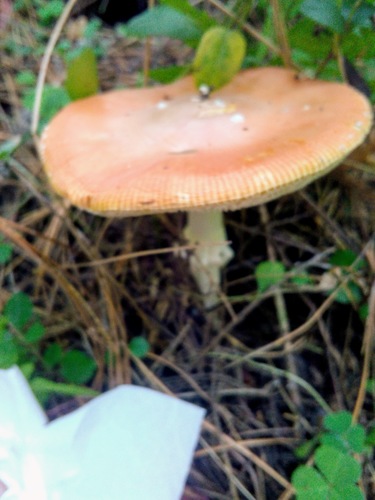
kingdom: Fungi
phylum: Basidiomycota
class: Agaricomycetes
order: Agaricales
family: Amanitaceae
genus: Amanita
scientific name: Amanita muscaria
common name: Fly agaric
